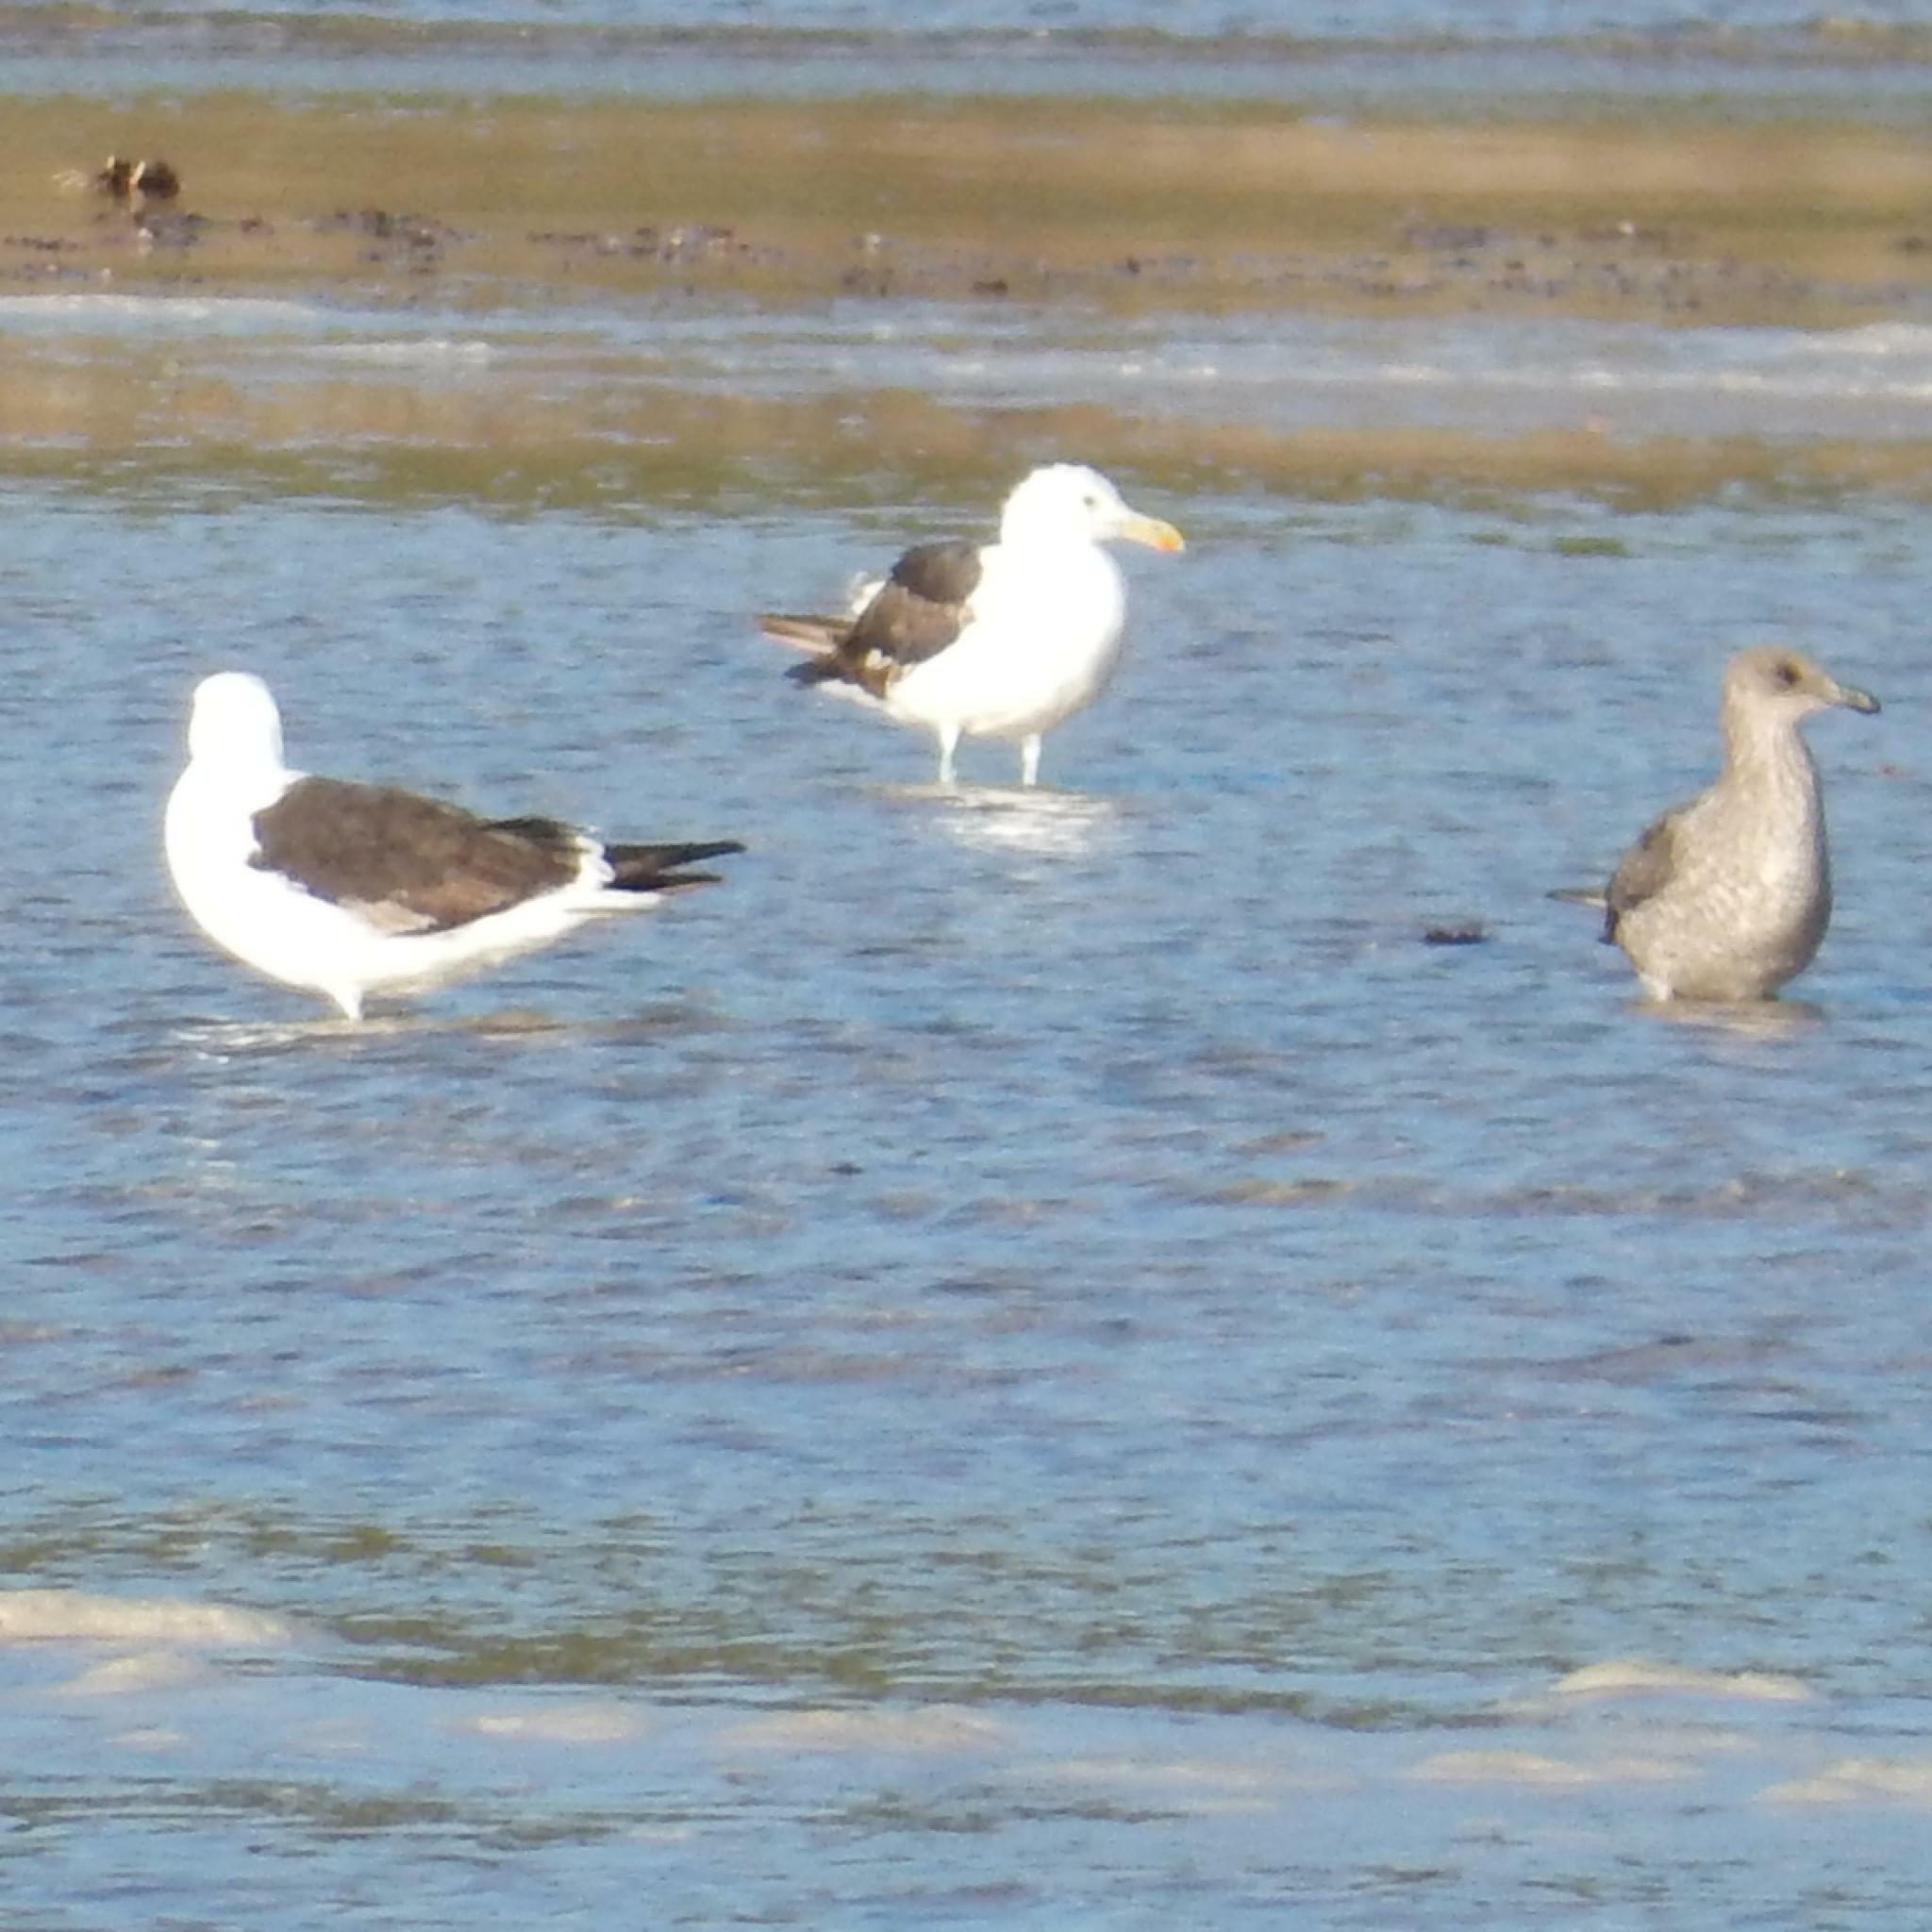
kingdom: Animalia
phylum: Chordata
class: Aves
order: Charadriiformes
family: Laridae
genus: Larus
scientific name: Larus dominicanus
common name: Kelp gull
